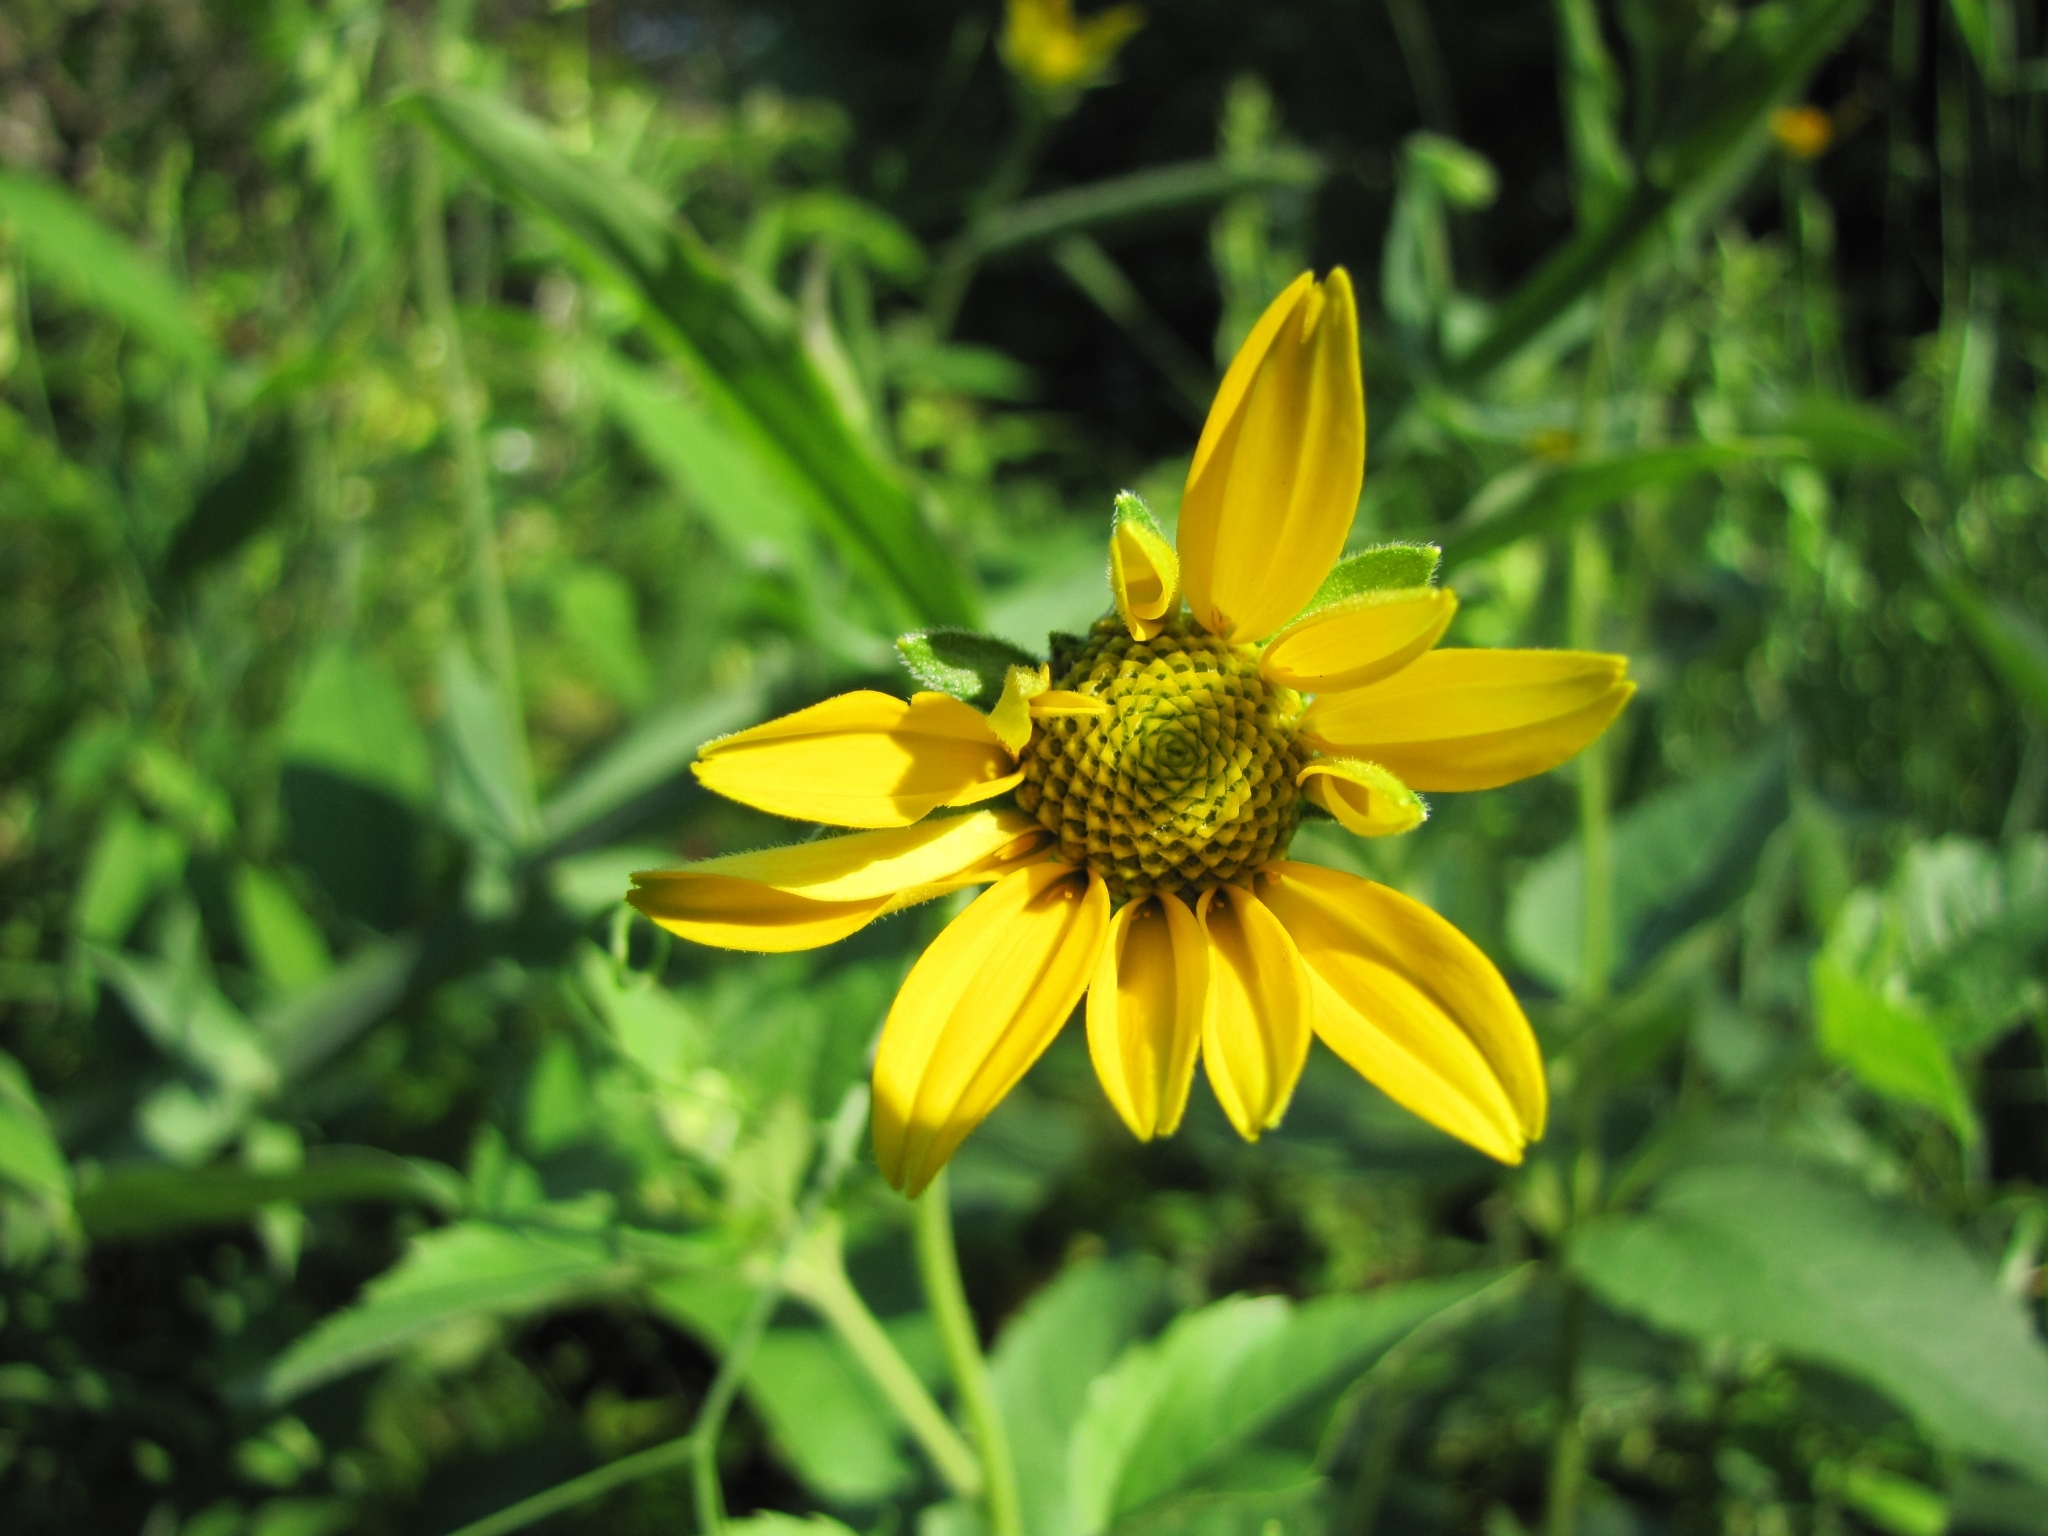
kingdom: Plantae
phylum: Tracheophyta
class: Magnoliopsida
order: Asterales
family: Asteraceae
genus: Heliopsis
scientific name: Heliopsis helianthoides
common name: False sunflower
